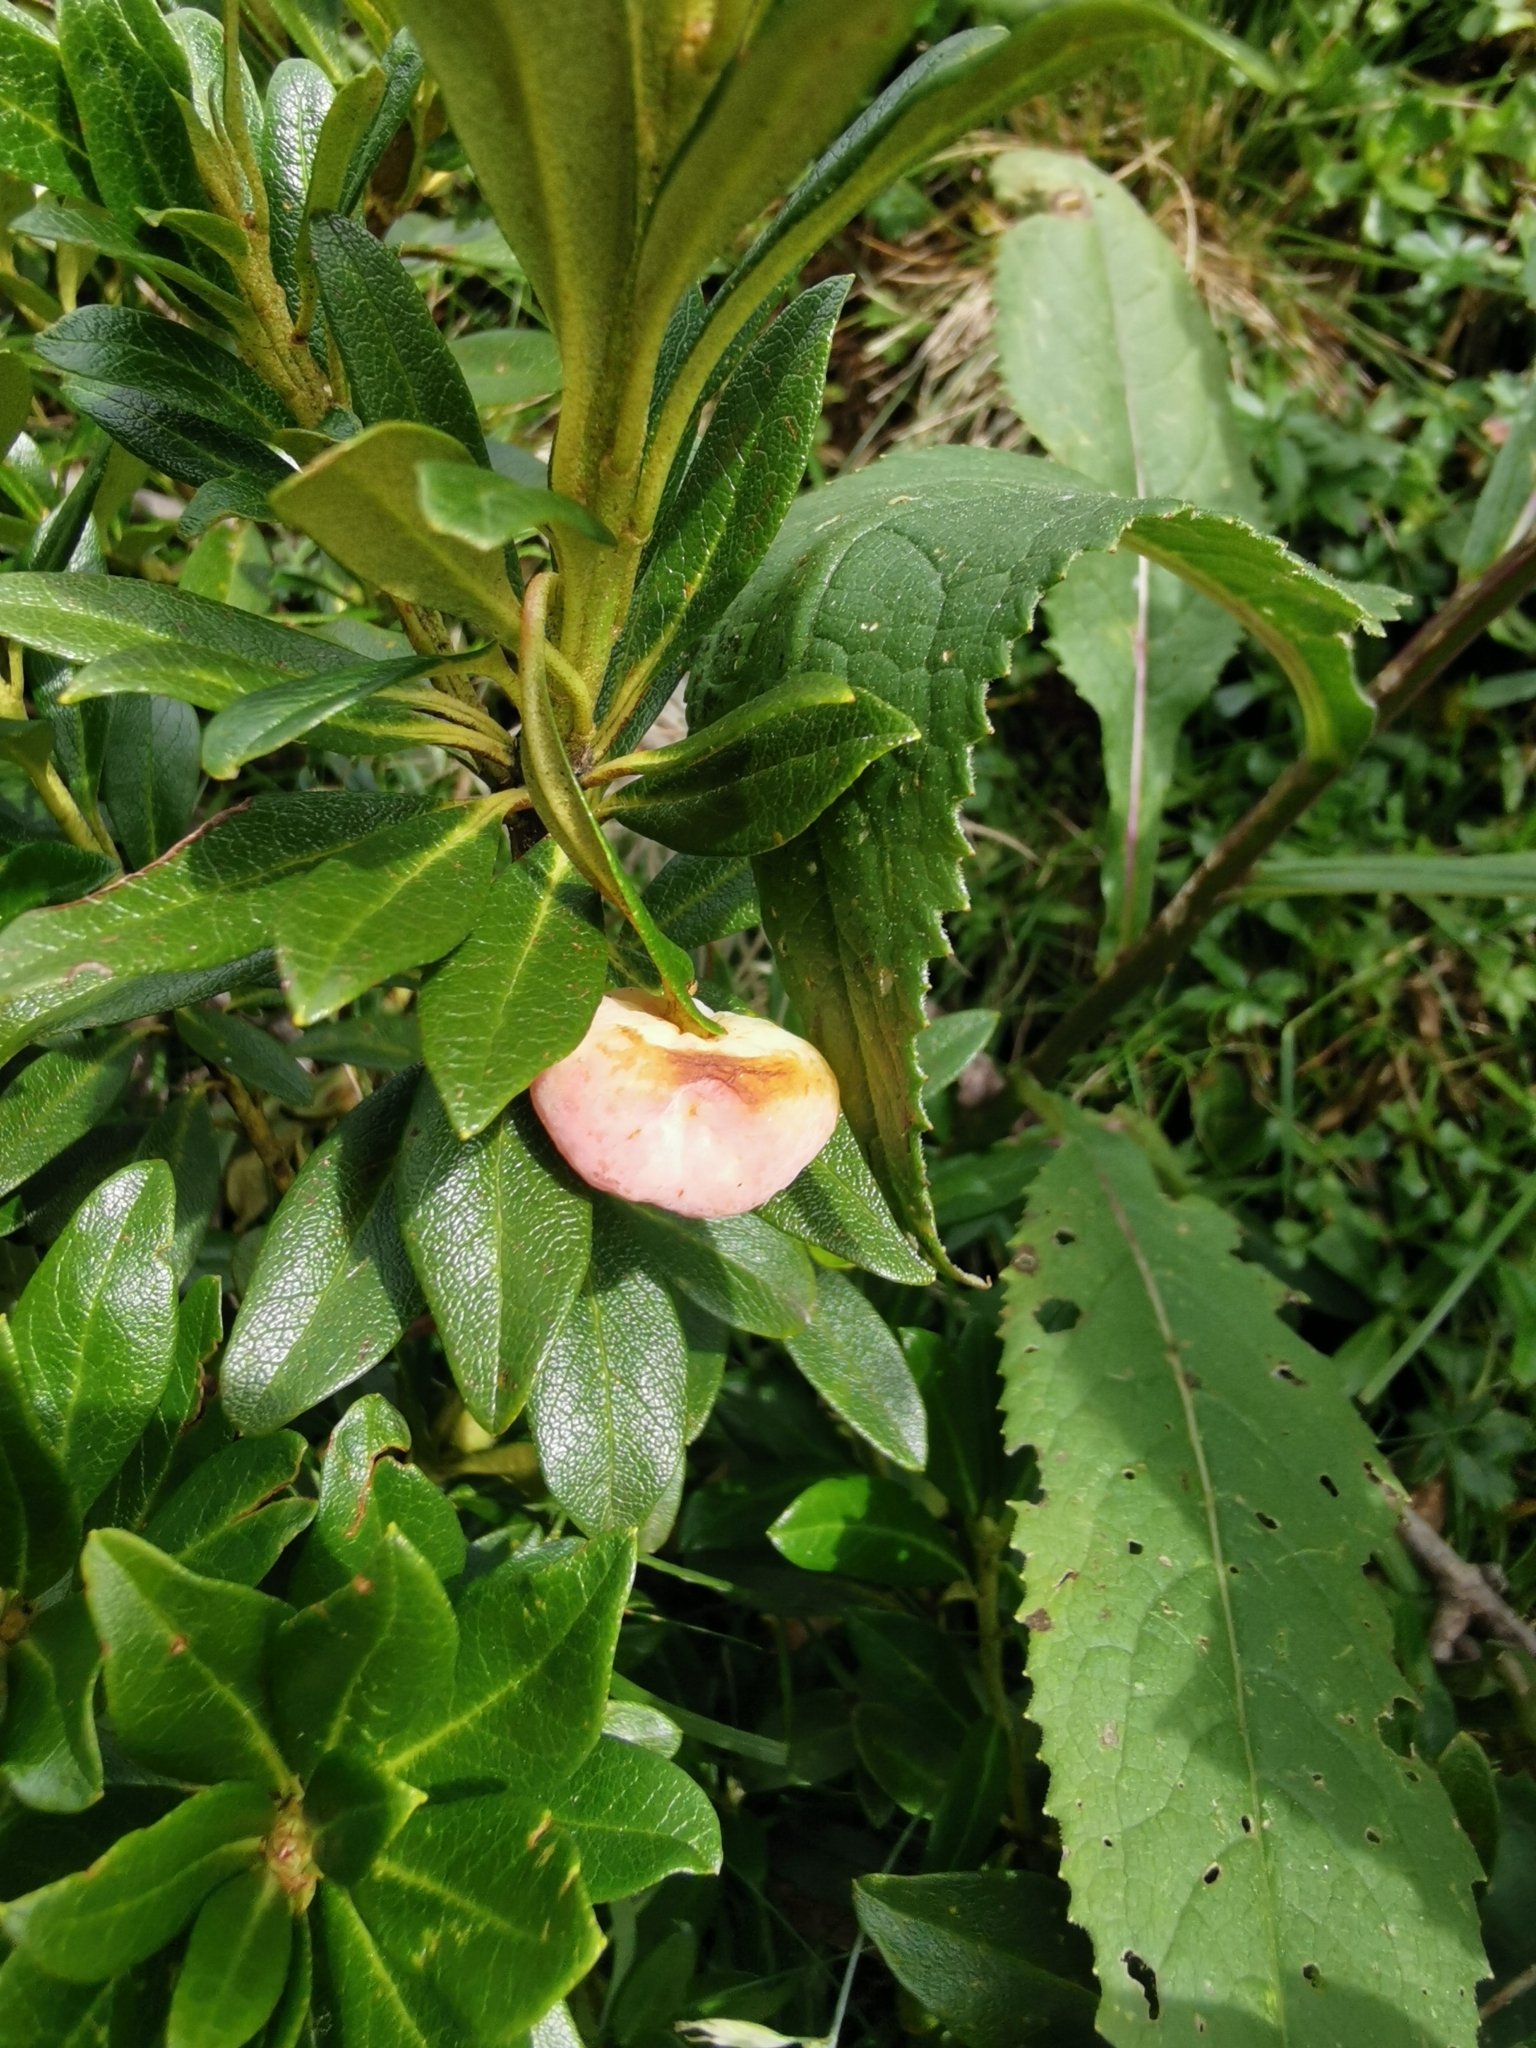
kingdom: Fungi
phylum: Basidiomycota
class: Exobasidiomycetes
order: Exobasidiales
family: Exobasidiaceae
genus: Exobasidium
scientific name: Exobasidium rhododendri
